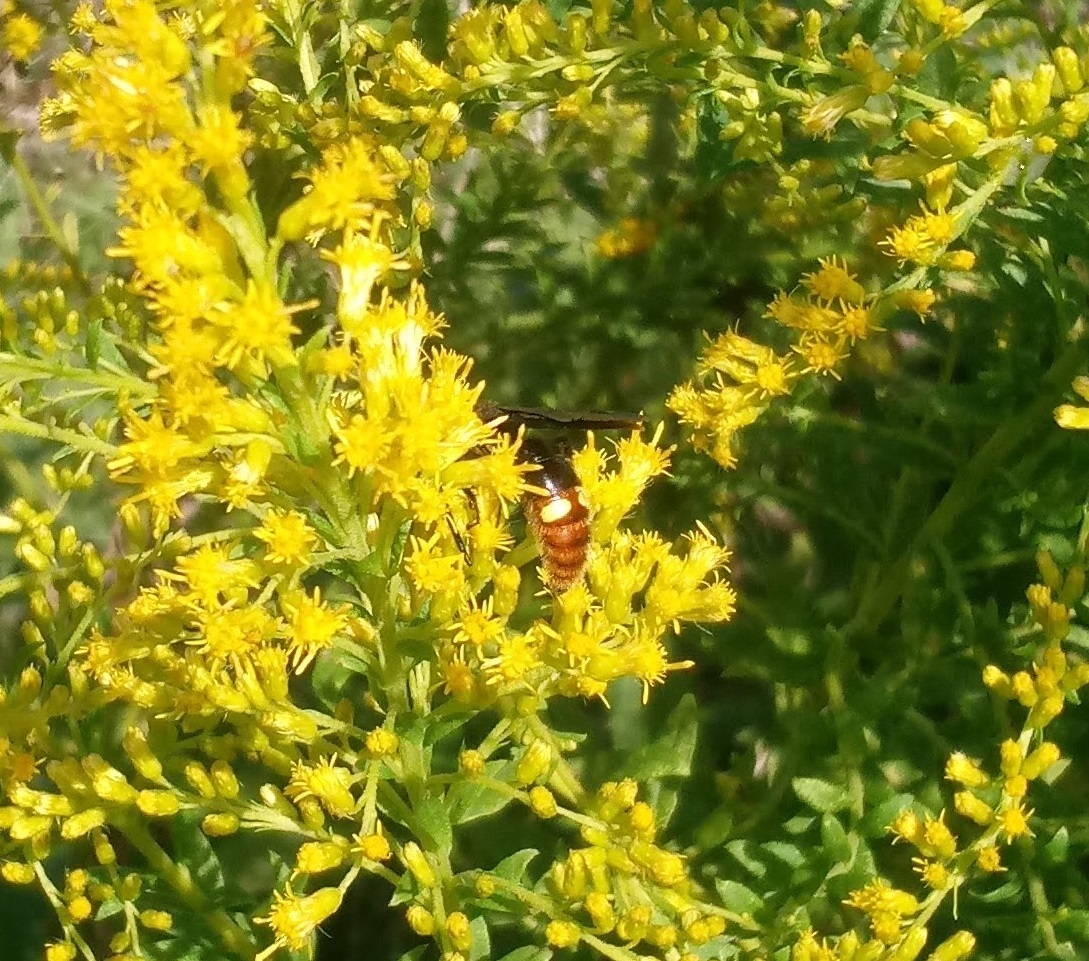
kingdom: Animalia
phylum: Arthropoda
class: Insecta
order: Hymenoptera
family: Scoliidae
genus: Scolia
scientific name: Scolia dubia
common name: Blue-winged scoliid wasp
